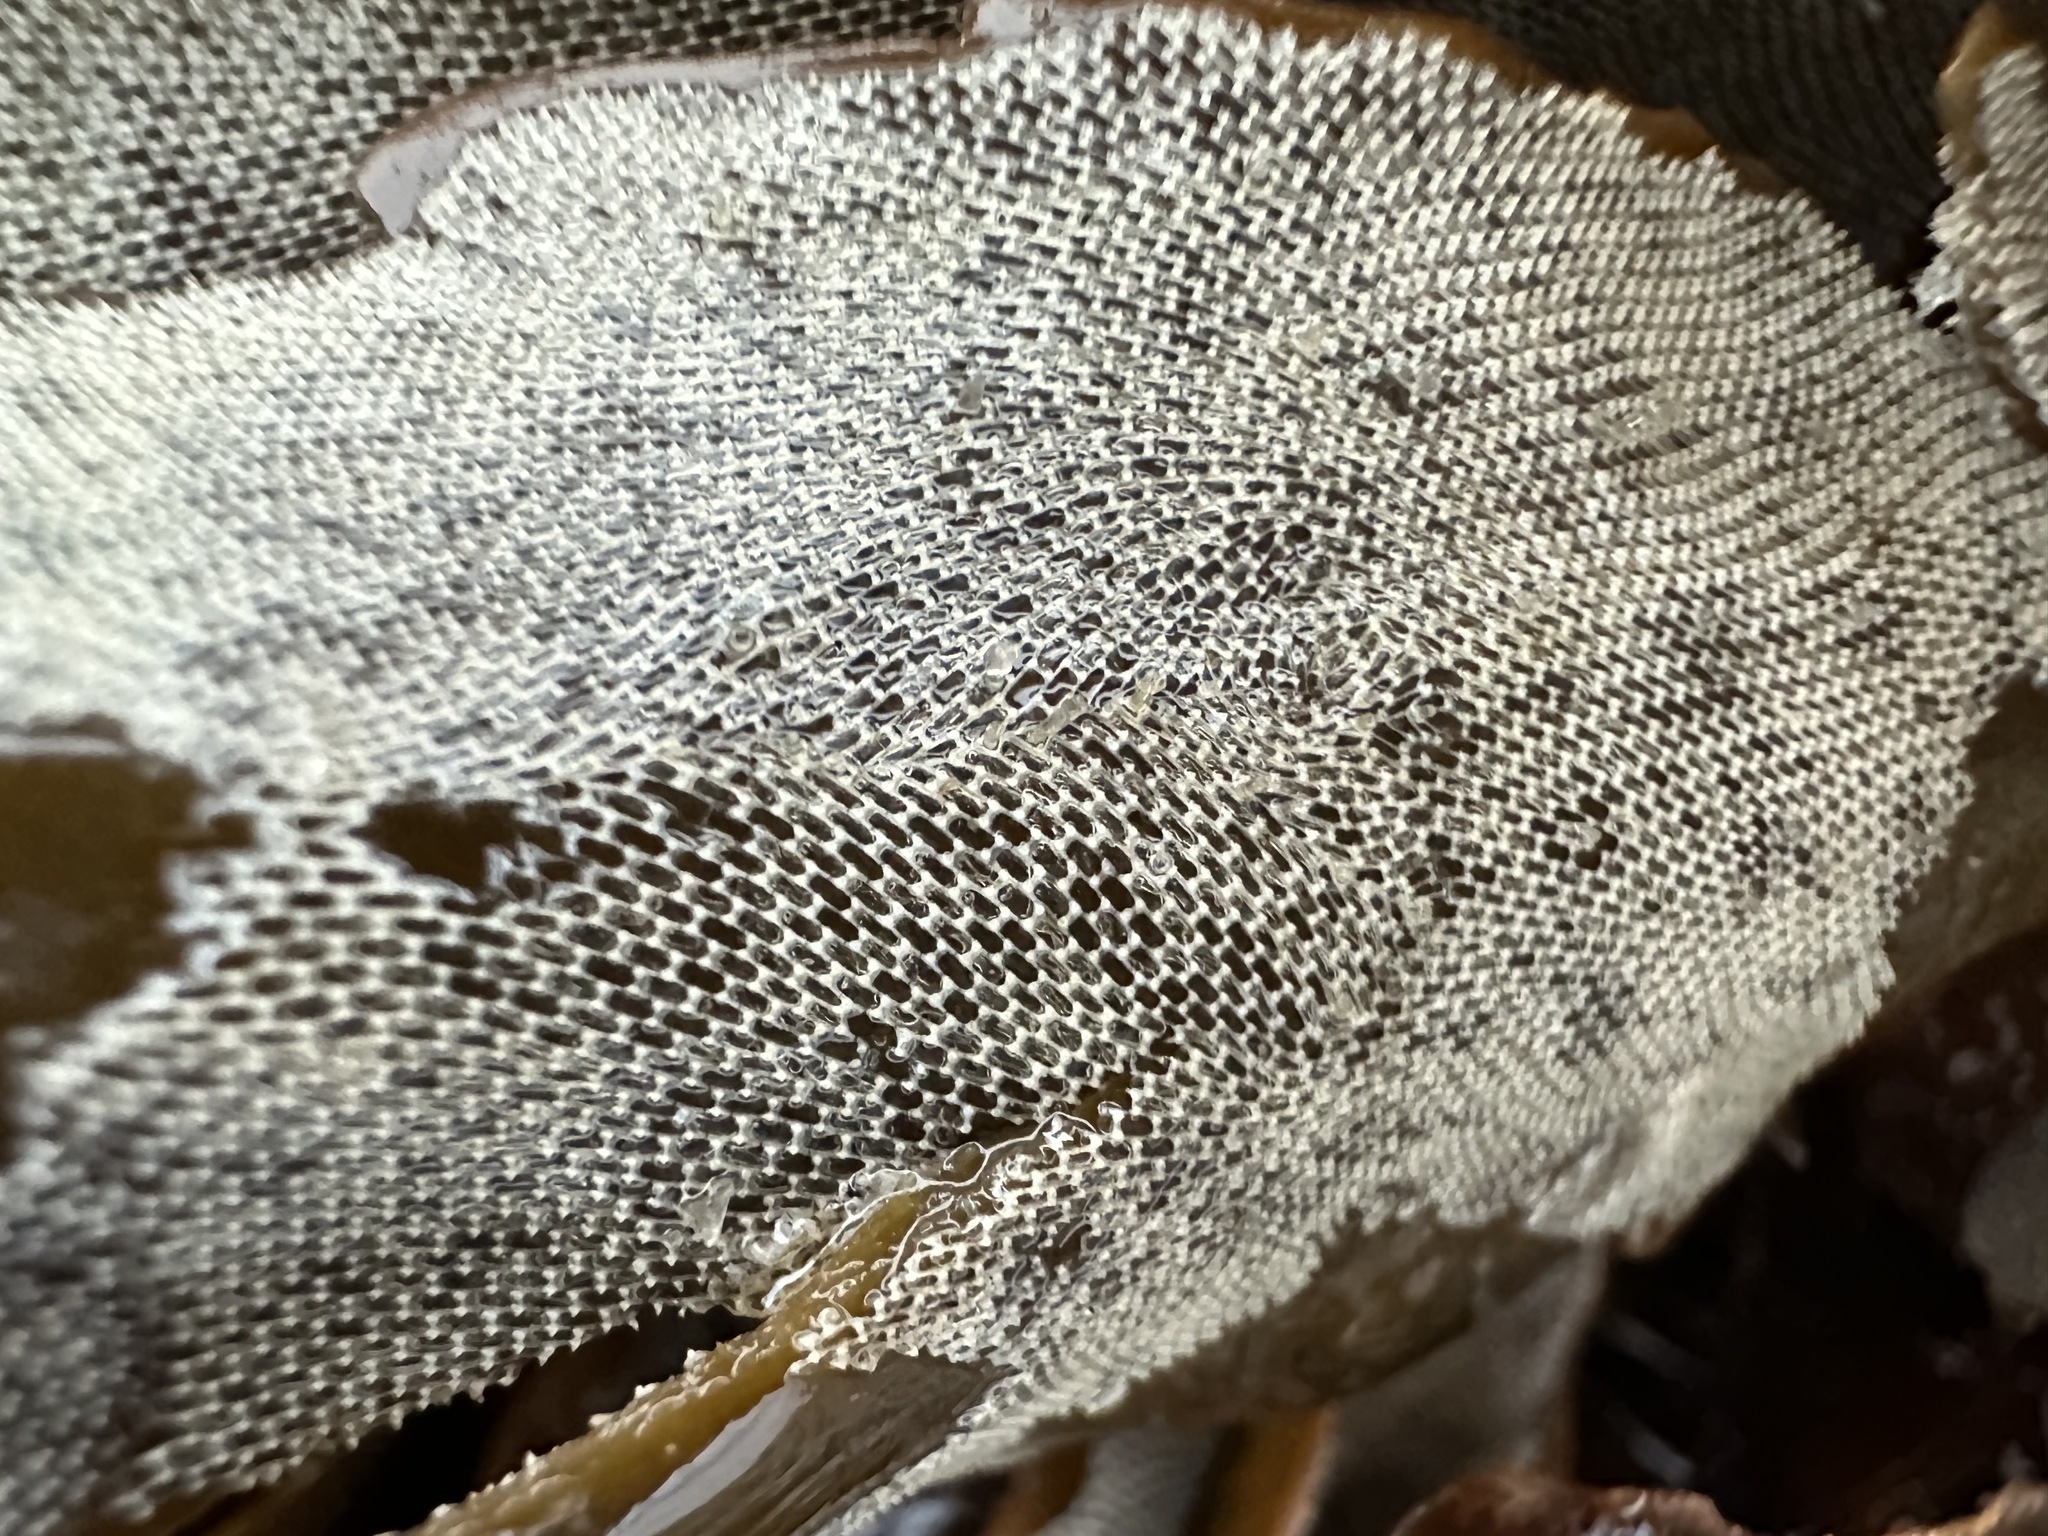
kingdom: Animalia
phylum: Bryozoa
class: Gymnolaemata
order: Cheilostomatida
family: Membraniporidae
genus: Membranipora
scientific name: Membranipora membranacea
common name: Sea mat
